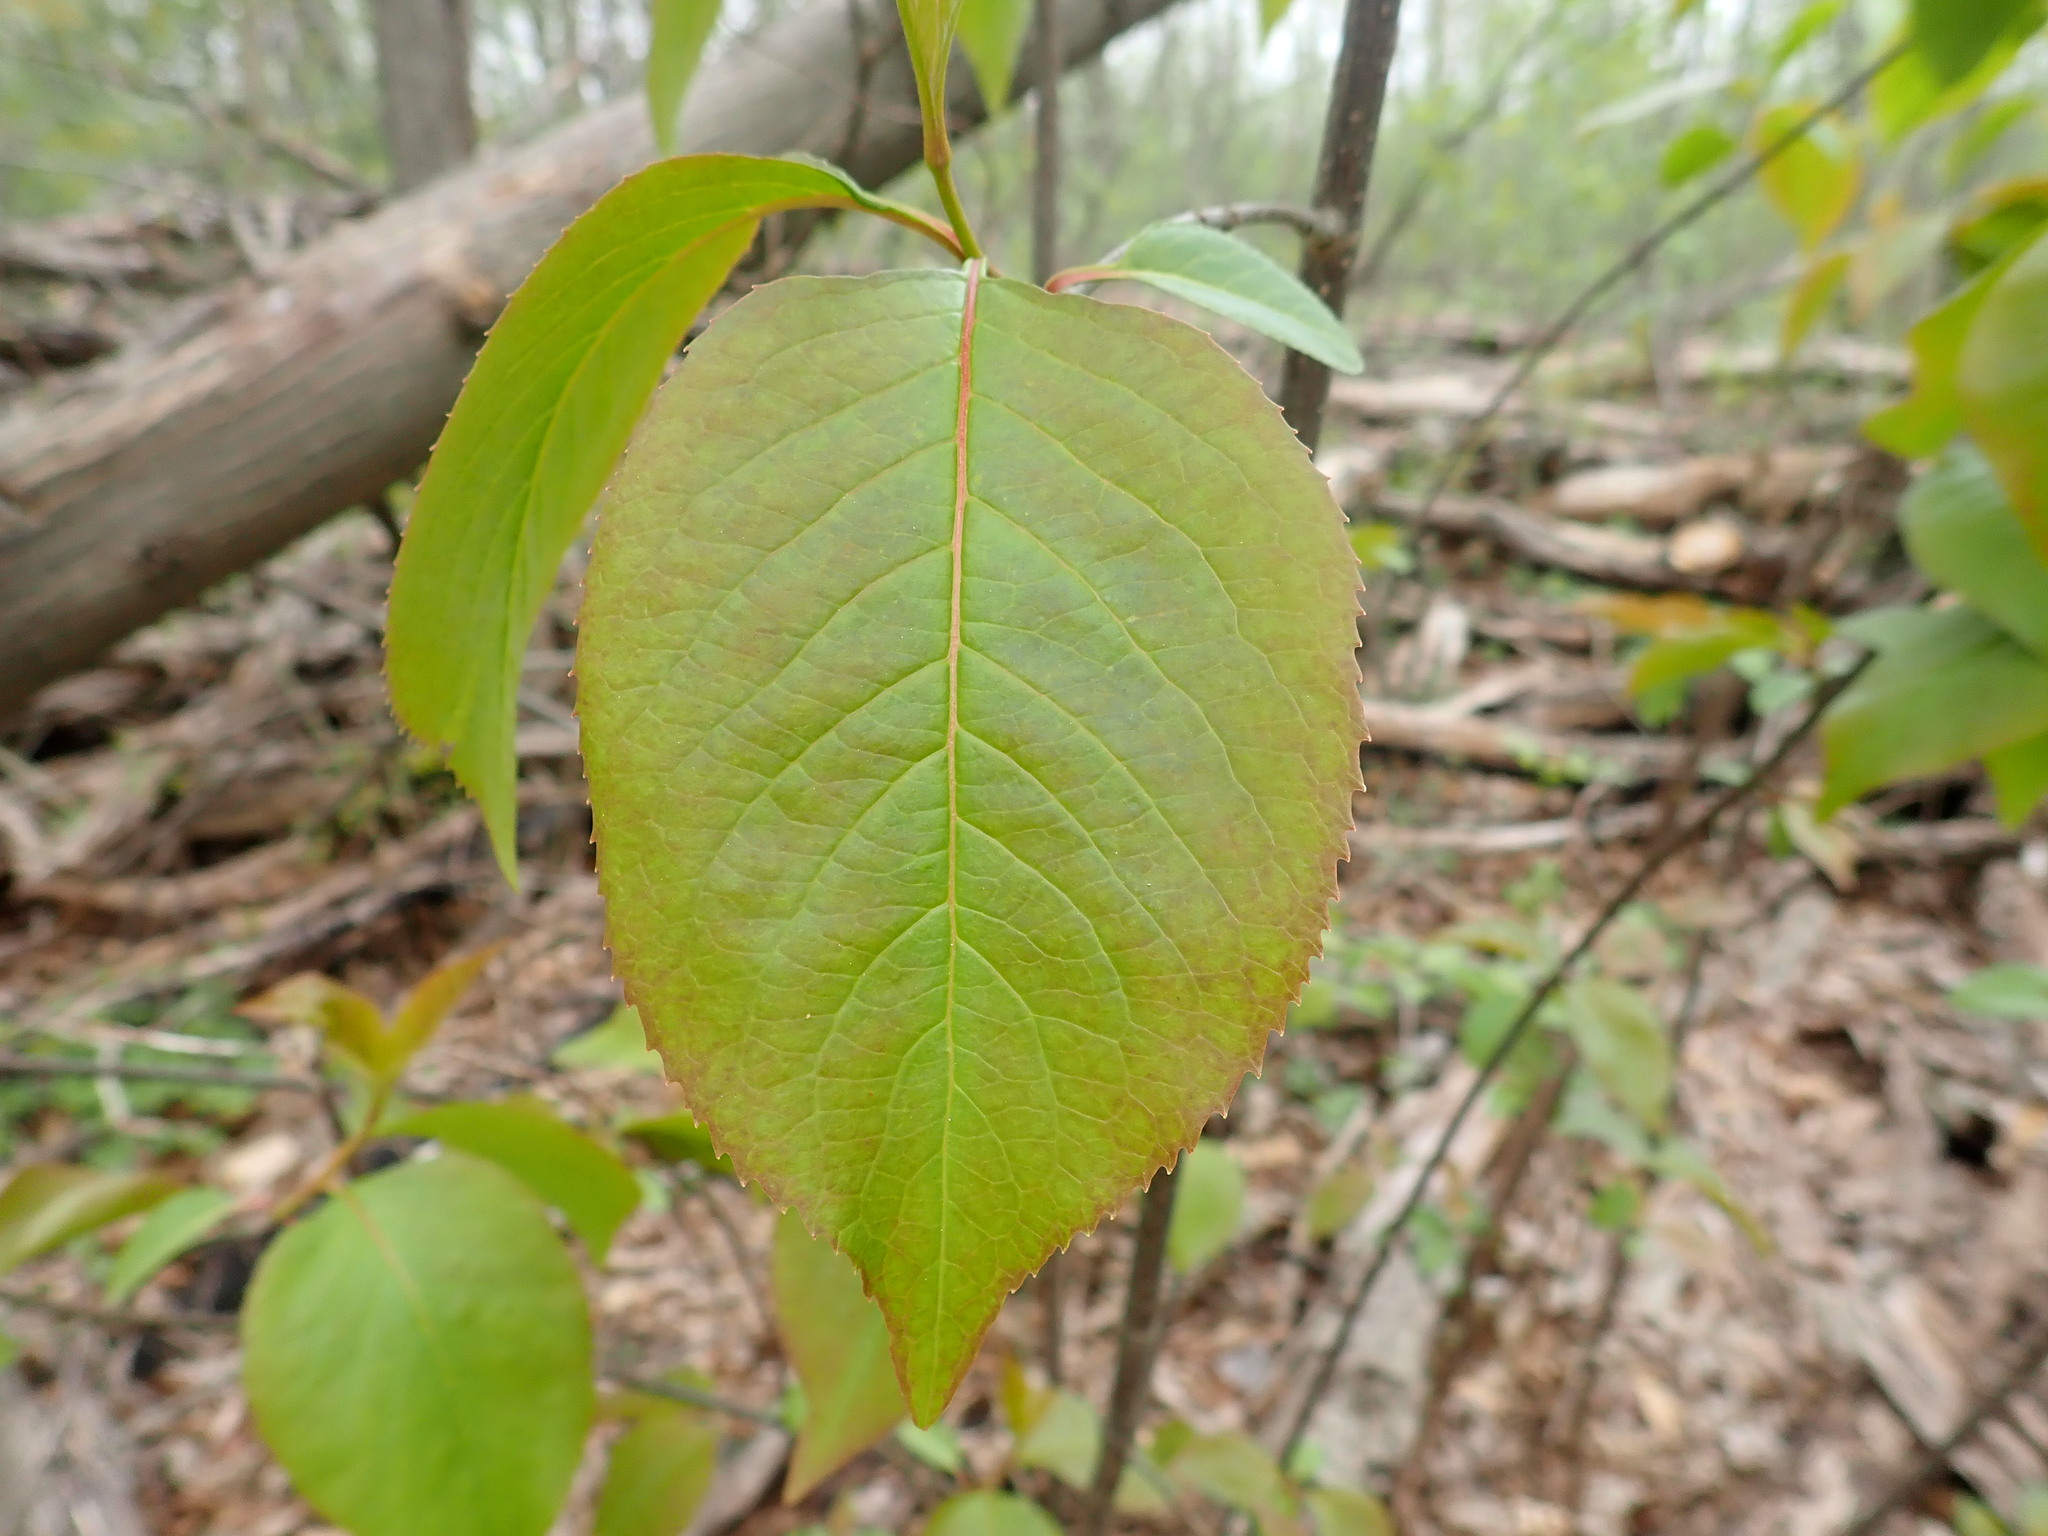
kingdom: Plantae
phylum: Tracheophyta
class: Magnoliopsida
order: Dipsacales
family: Viburnaceae
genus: Viburnum
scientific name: Viburnum lentago
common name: Black haw
